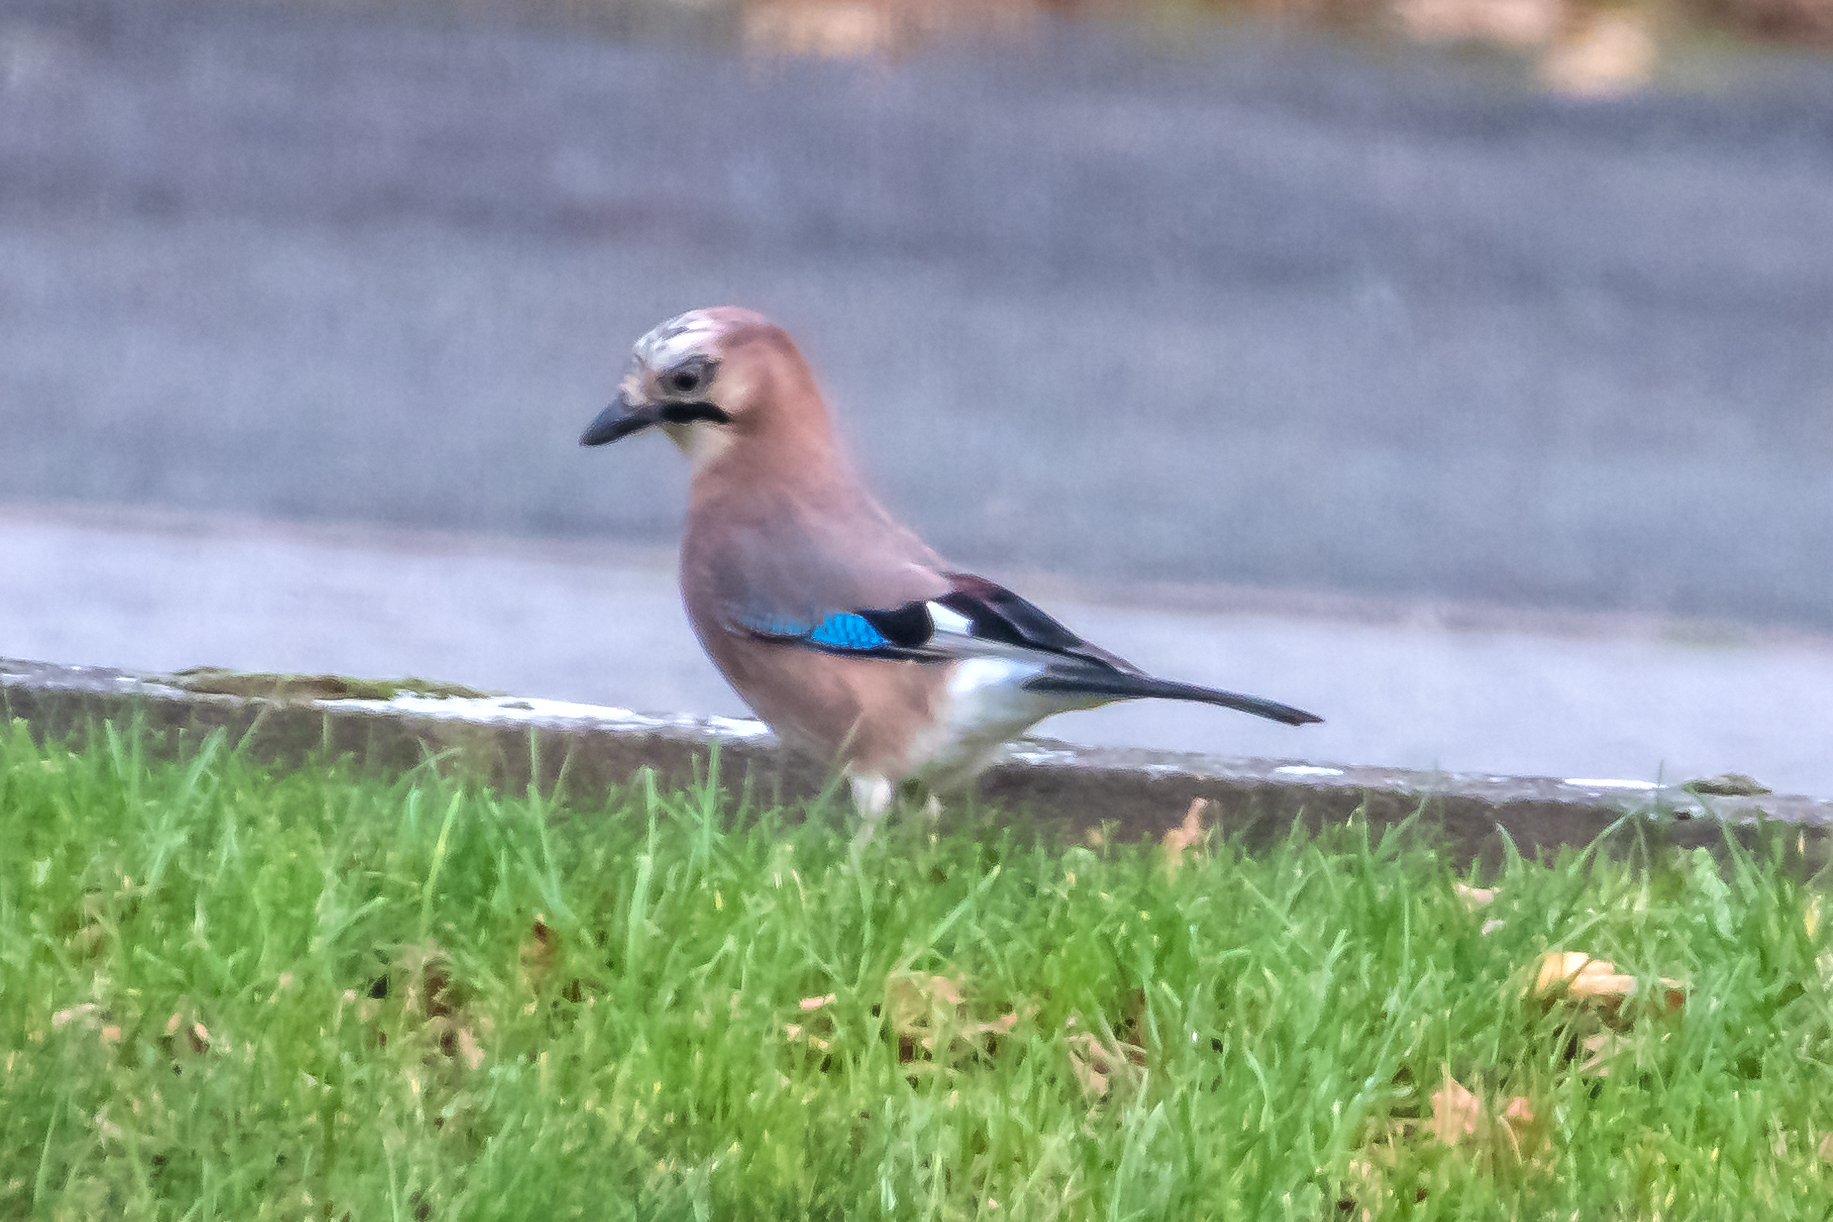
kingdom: Animalia
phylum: Chordata
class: Aves
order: Passeriformes
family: Corvidae
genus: Garrulus
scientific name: Garrulus glandarius
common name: Eurasian jay
